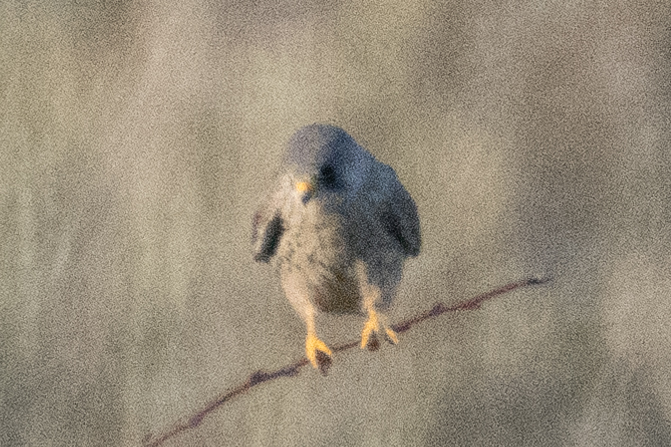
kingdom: Animalia
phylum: Chordata
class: Aves
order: Falconiformes
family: Falconidae
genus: Falco
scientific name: Falco tinnunculus
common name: Common kestrel
